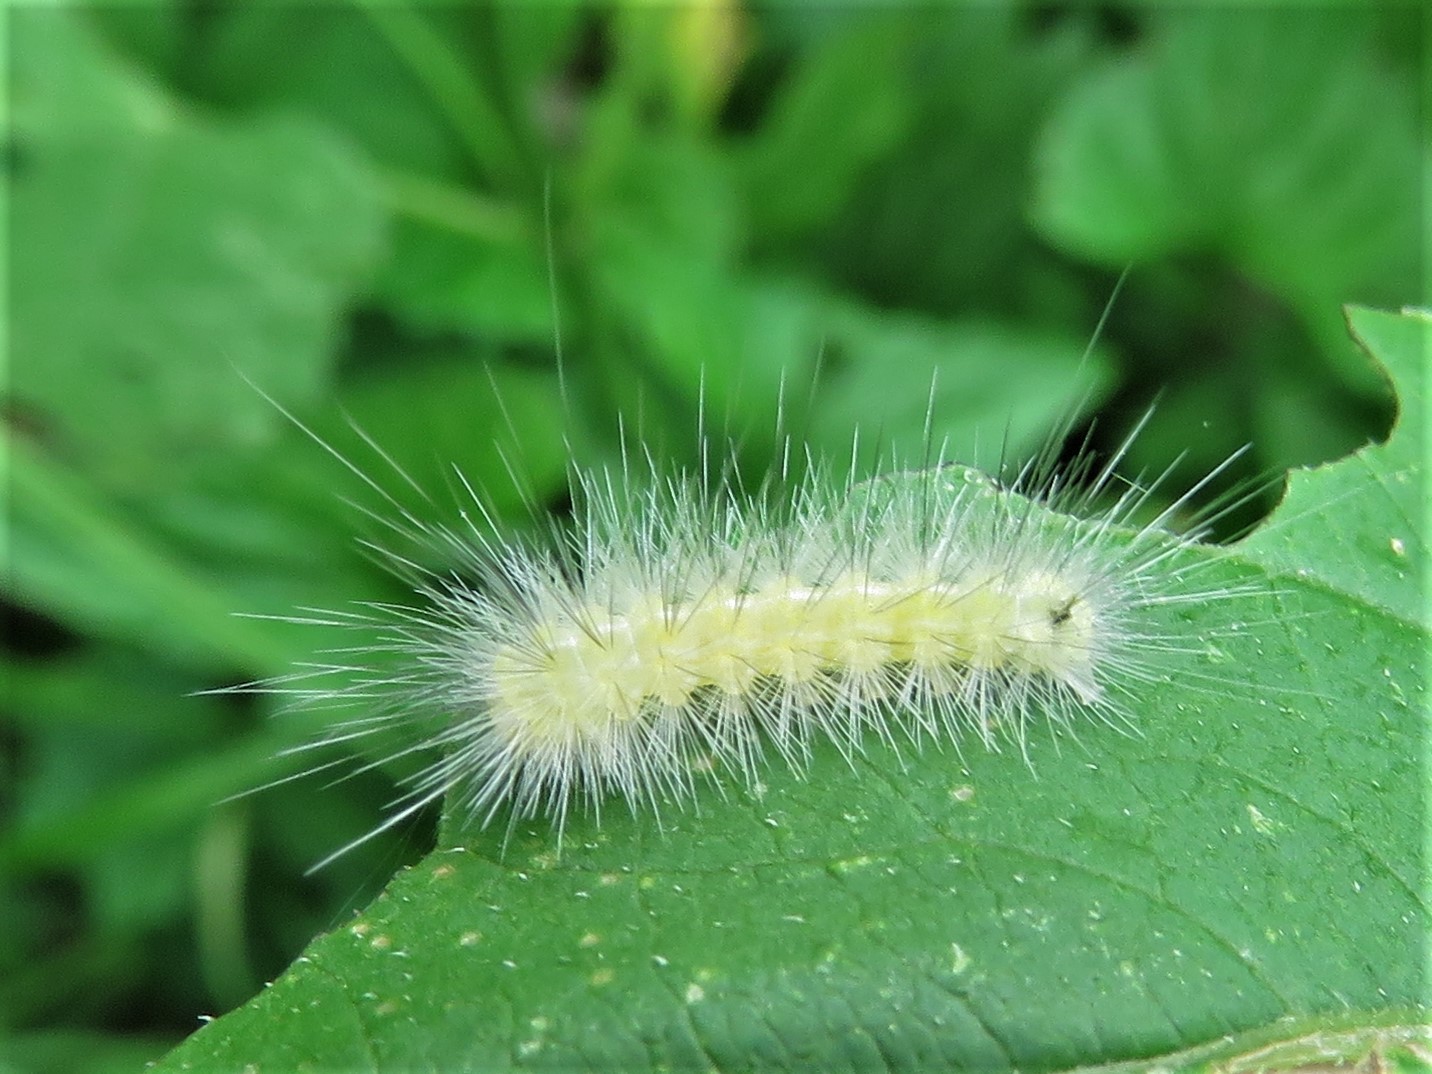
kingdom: Animalia
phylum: Arthropoda
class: Insecta
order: Lepidoptera
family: Erebidae
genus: Spilosoma
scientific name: Spilosoma virginica
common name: Virginia tiger moth
